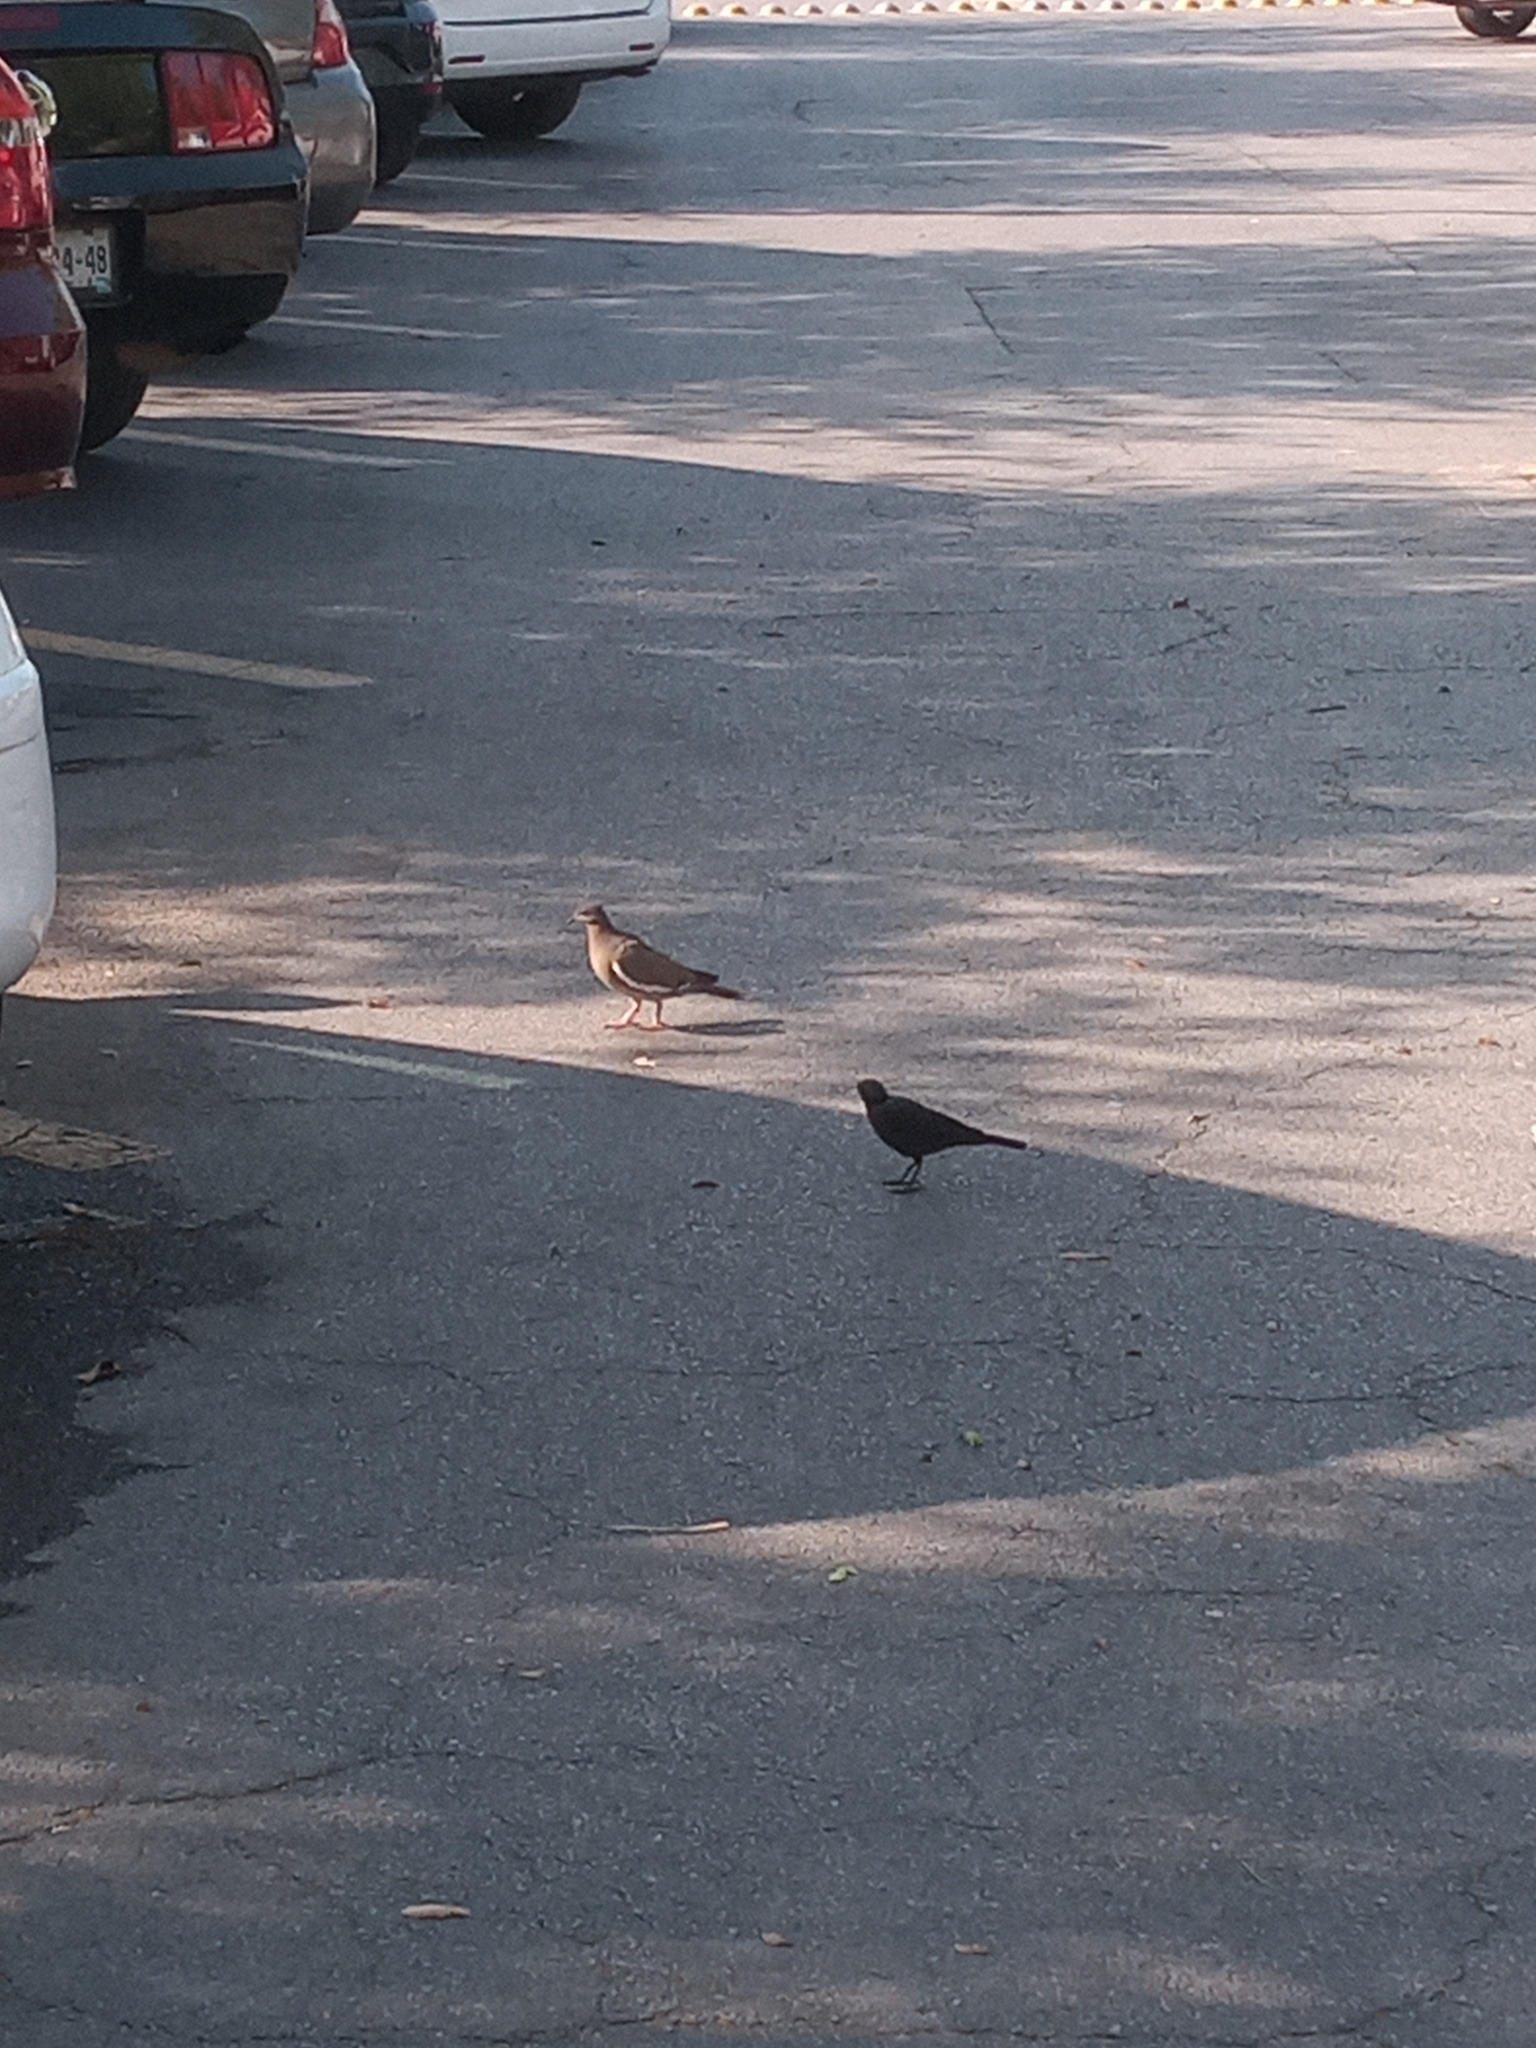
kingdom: Animalia
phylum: Chordata
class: Aves
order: Columbiformes
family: Columbidae
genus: Zenaida
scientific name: Zenaida asiatica
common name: White-winged dove
